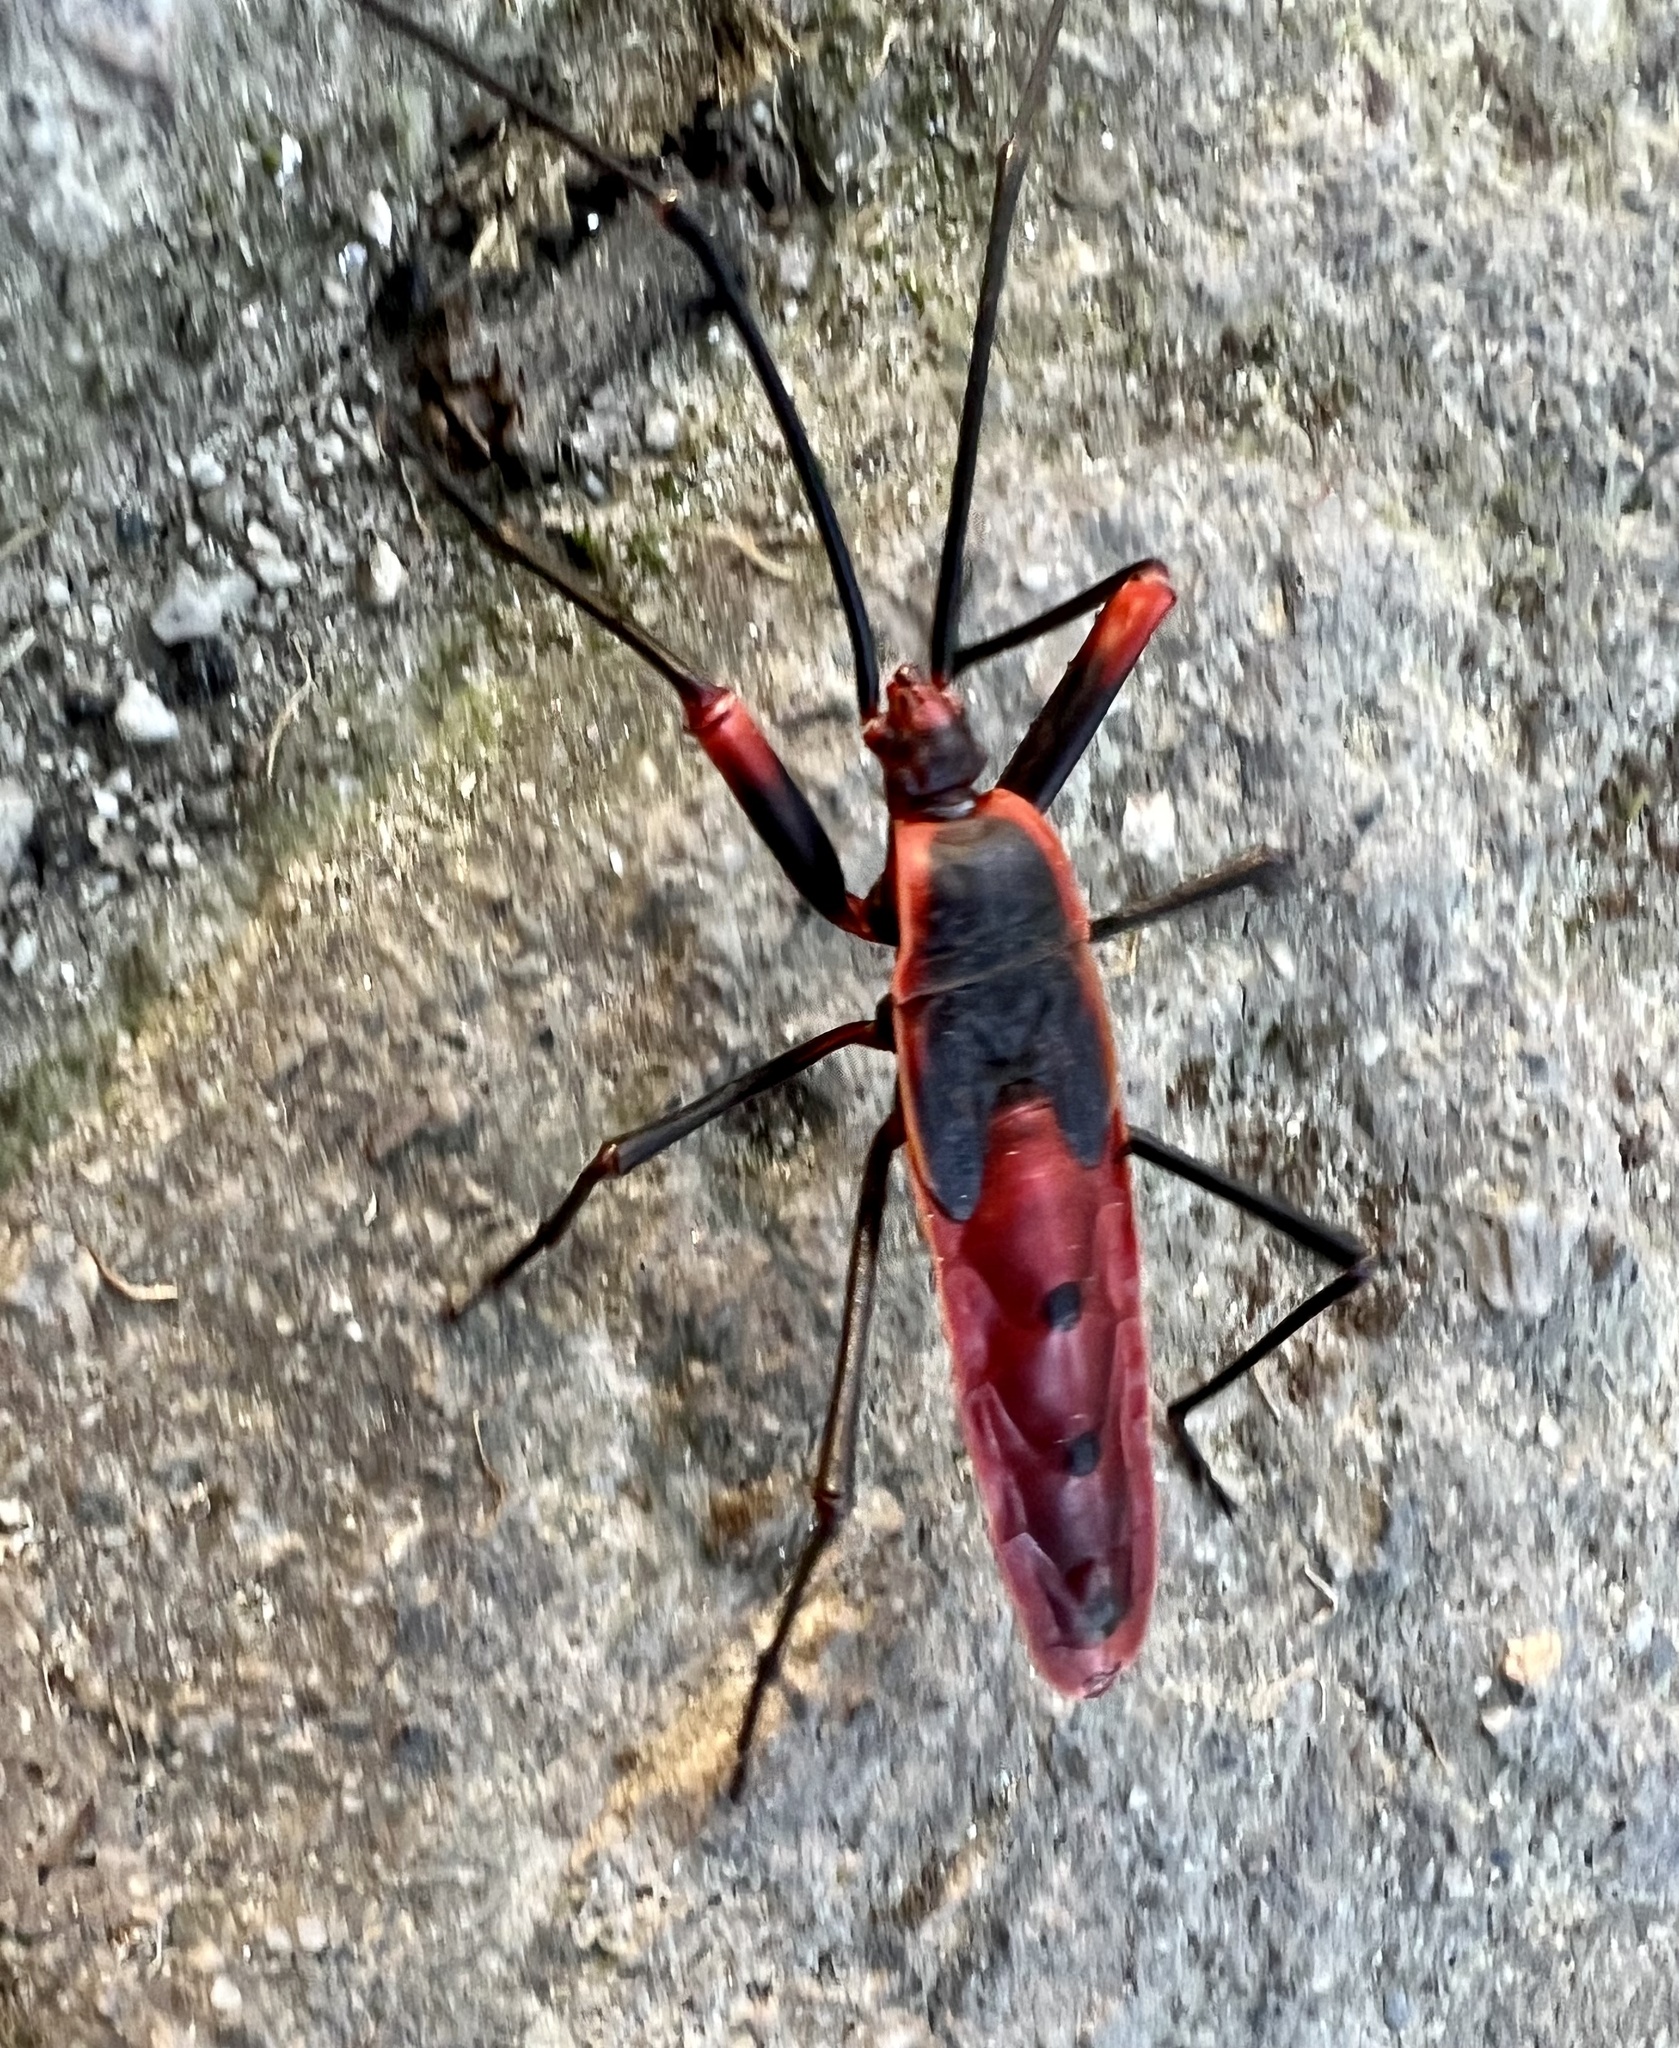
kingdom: Animalia
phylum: Arthropoda
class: Insecta
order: Hemiptera
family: Largidae
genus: Macrocheraia
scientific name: Macrocheraia grandis
